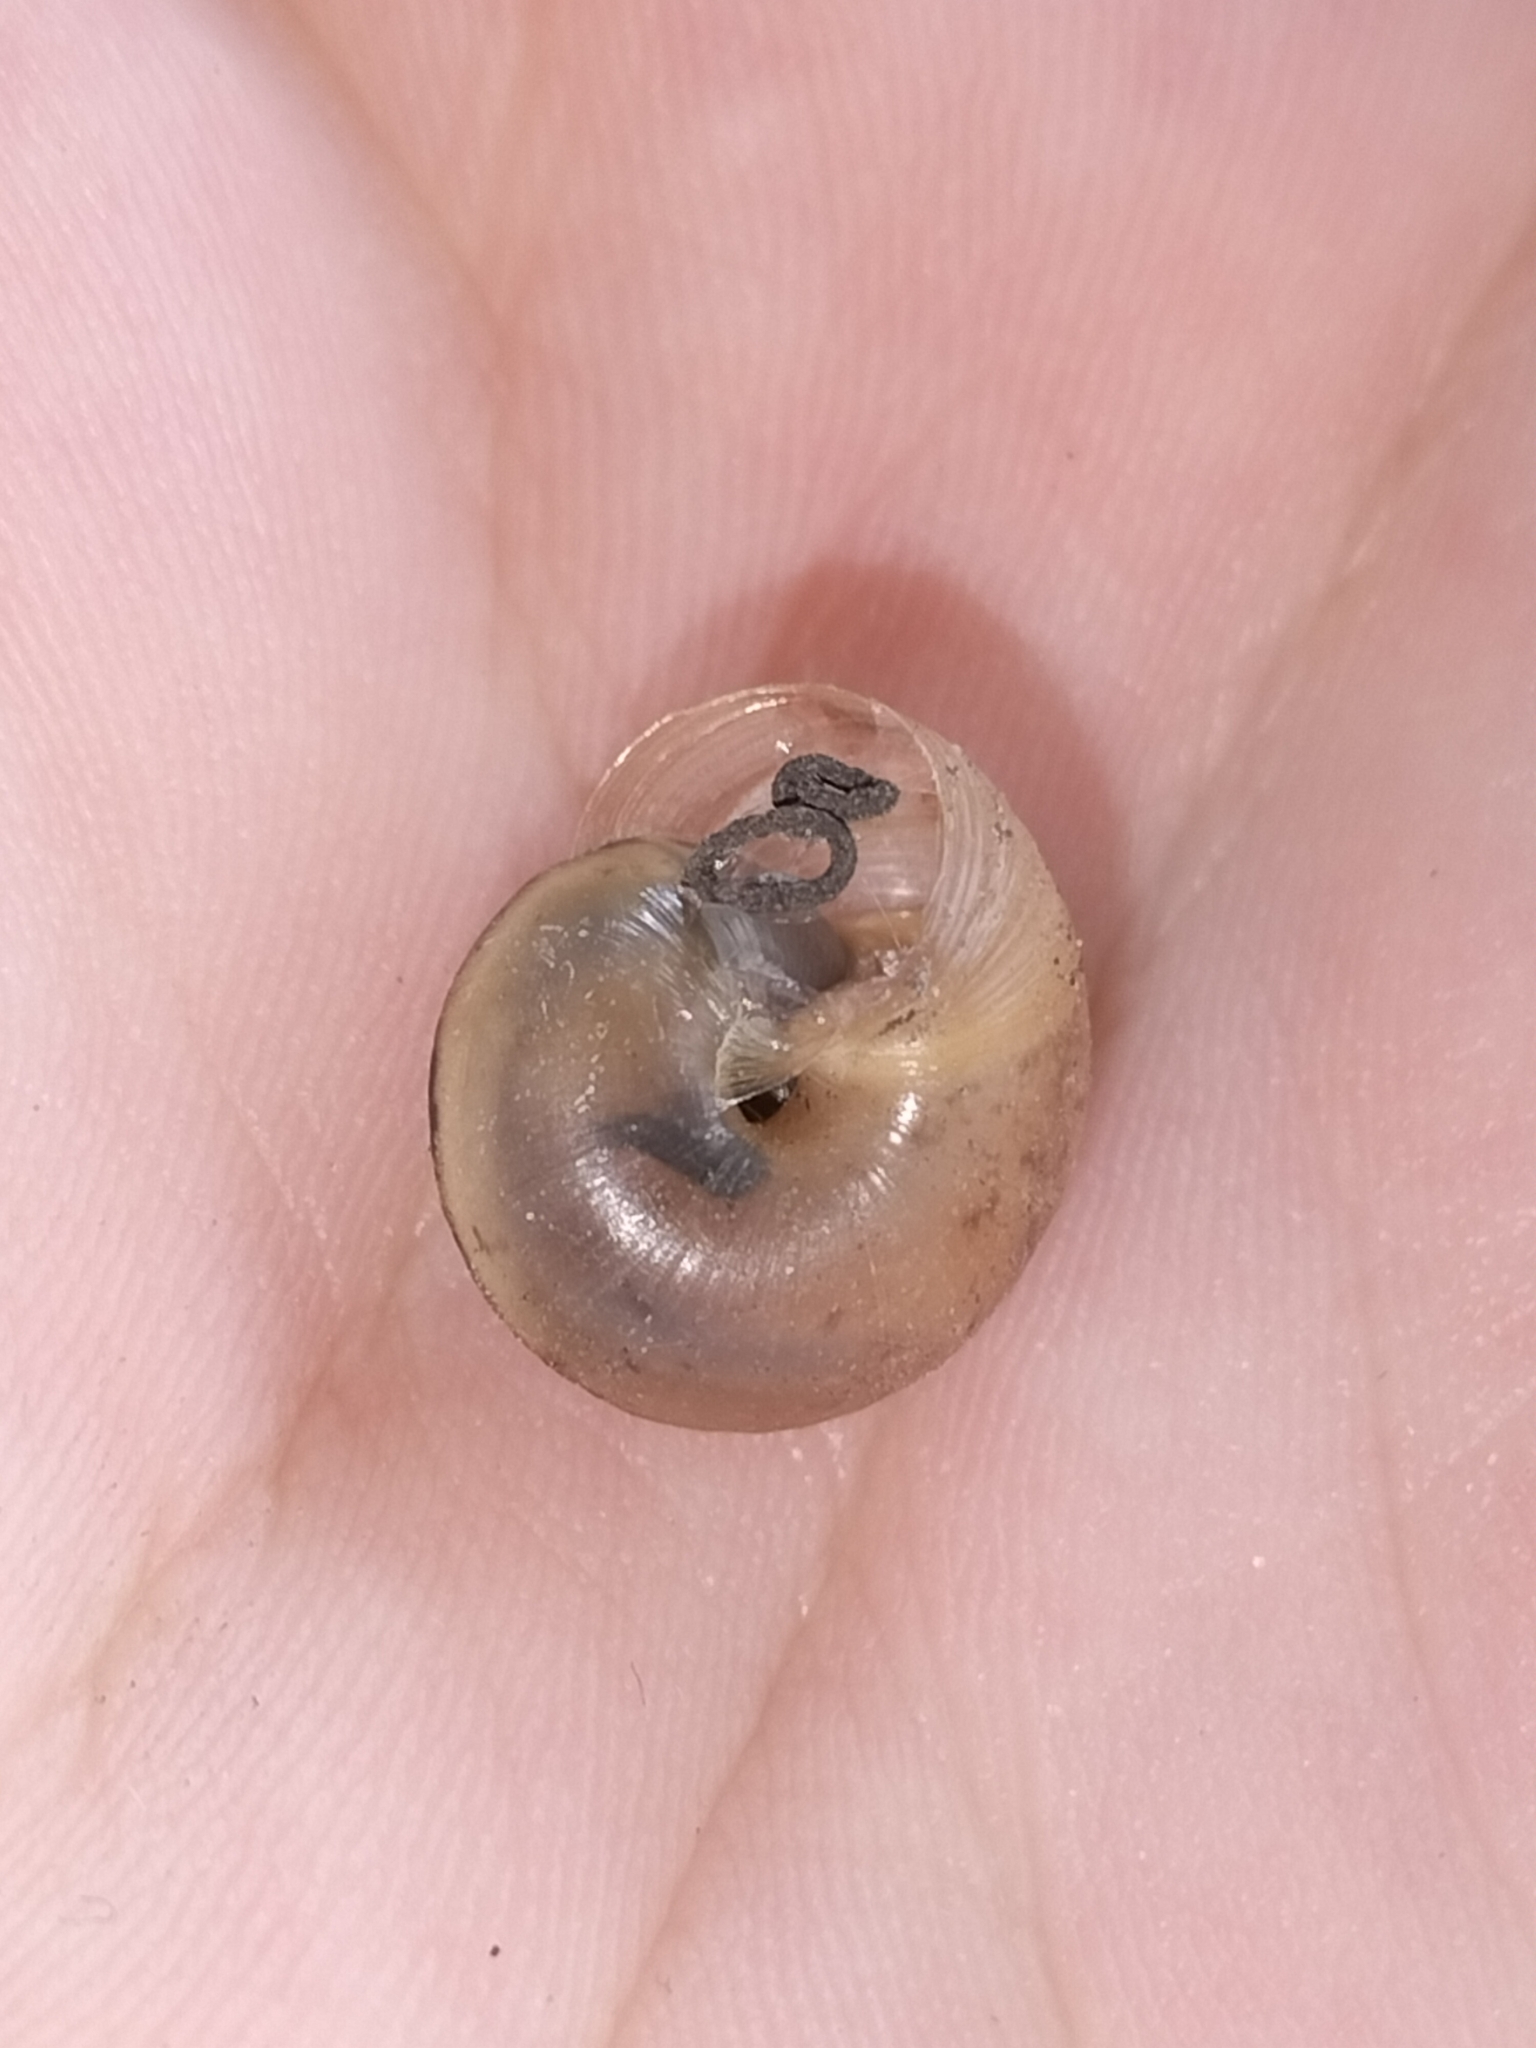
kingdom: Animalia
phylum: Mollusca
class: Gastropoda
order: Stylommatophora
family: Camaenidae
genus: Bradybaena
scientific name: Bradybaena similaris
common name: Asian trampsnail
